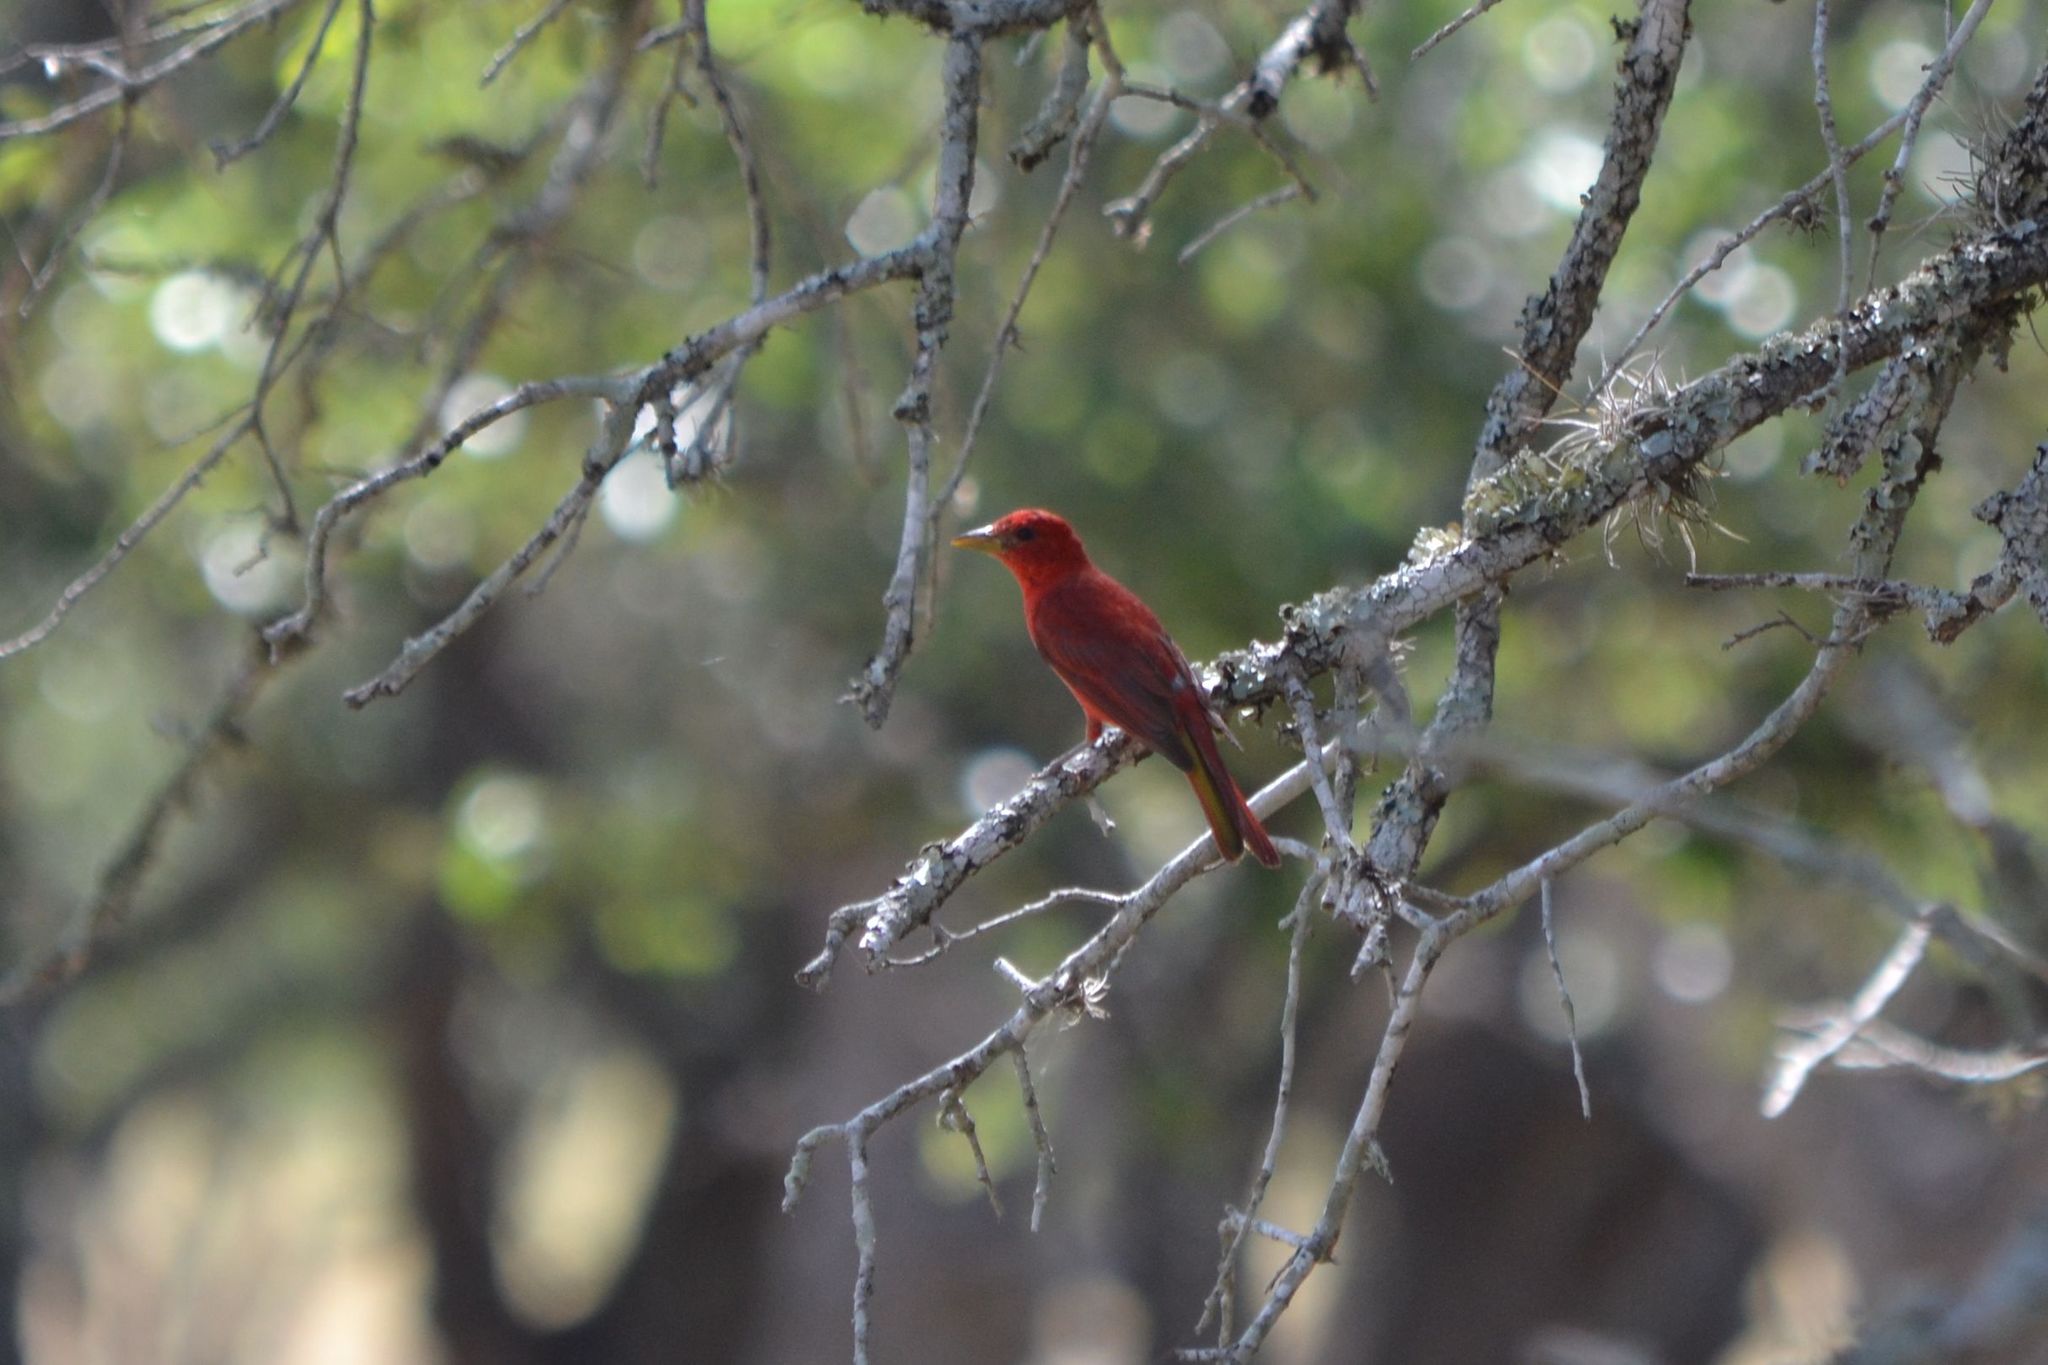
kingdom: Animalia
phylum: Chordata
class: Aves
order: Passeriformes
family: Cardinalidae
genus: Piranga
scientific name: Piranga rubra
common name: Summer tanager
